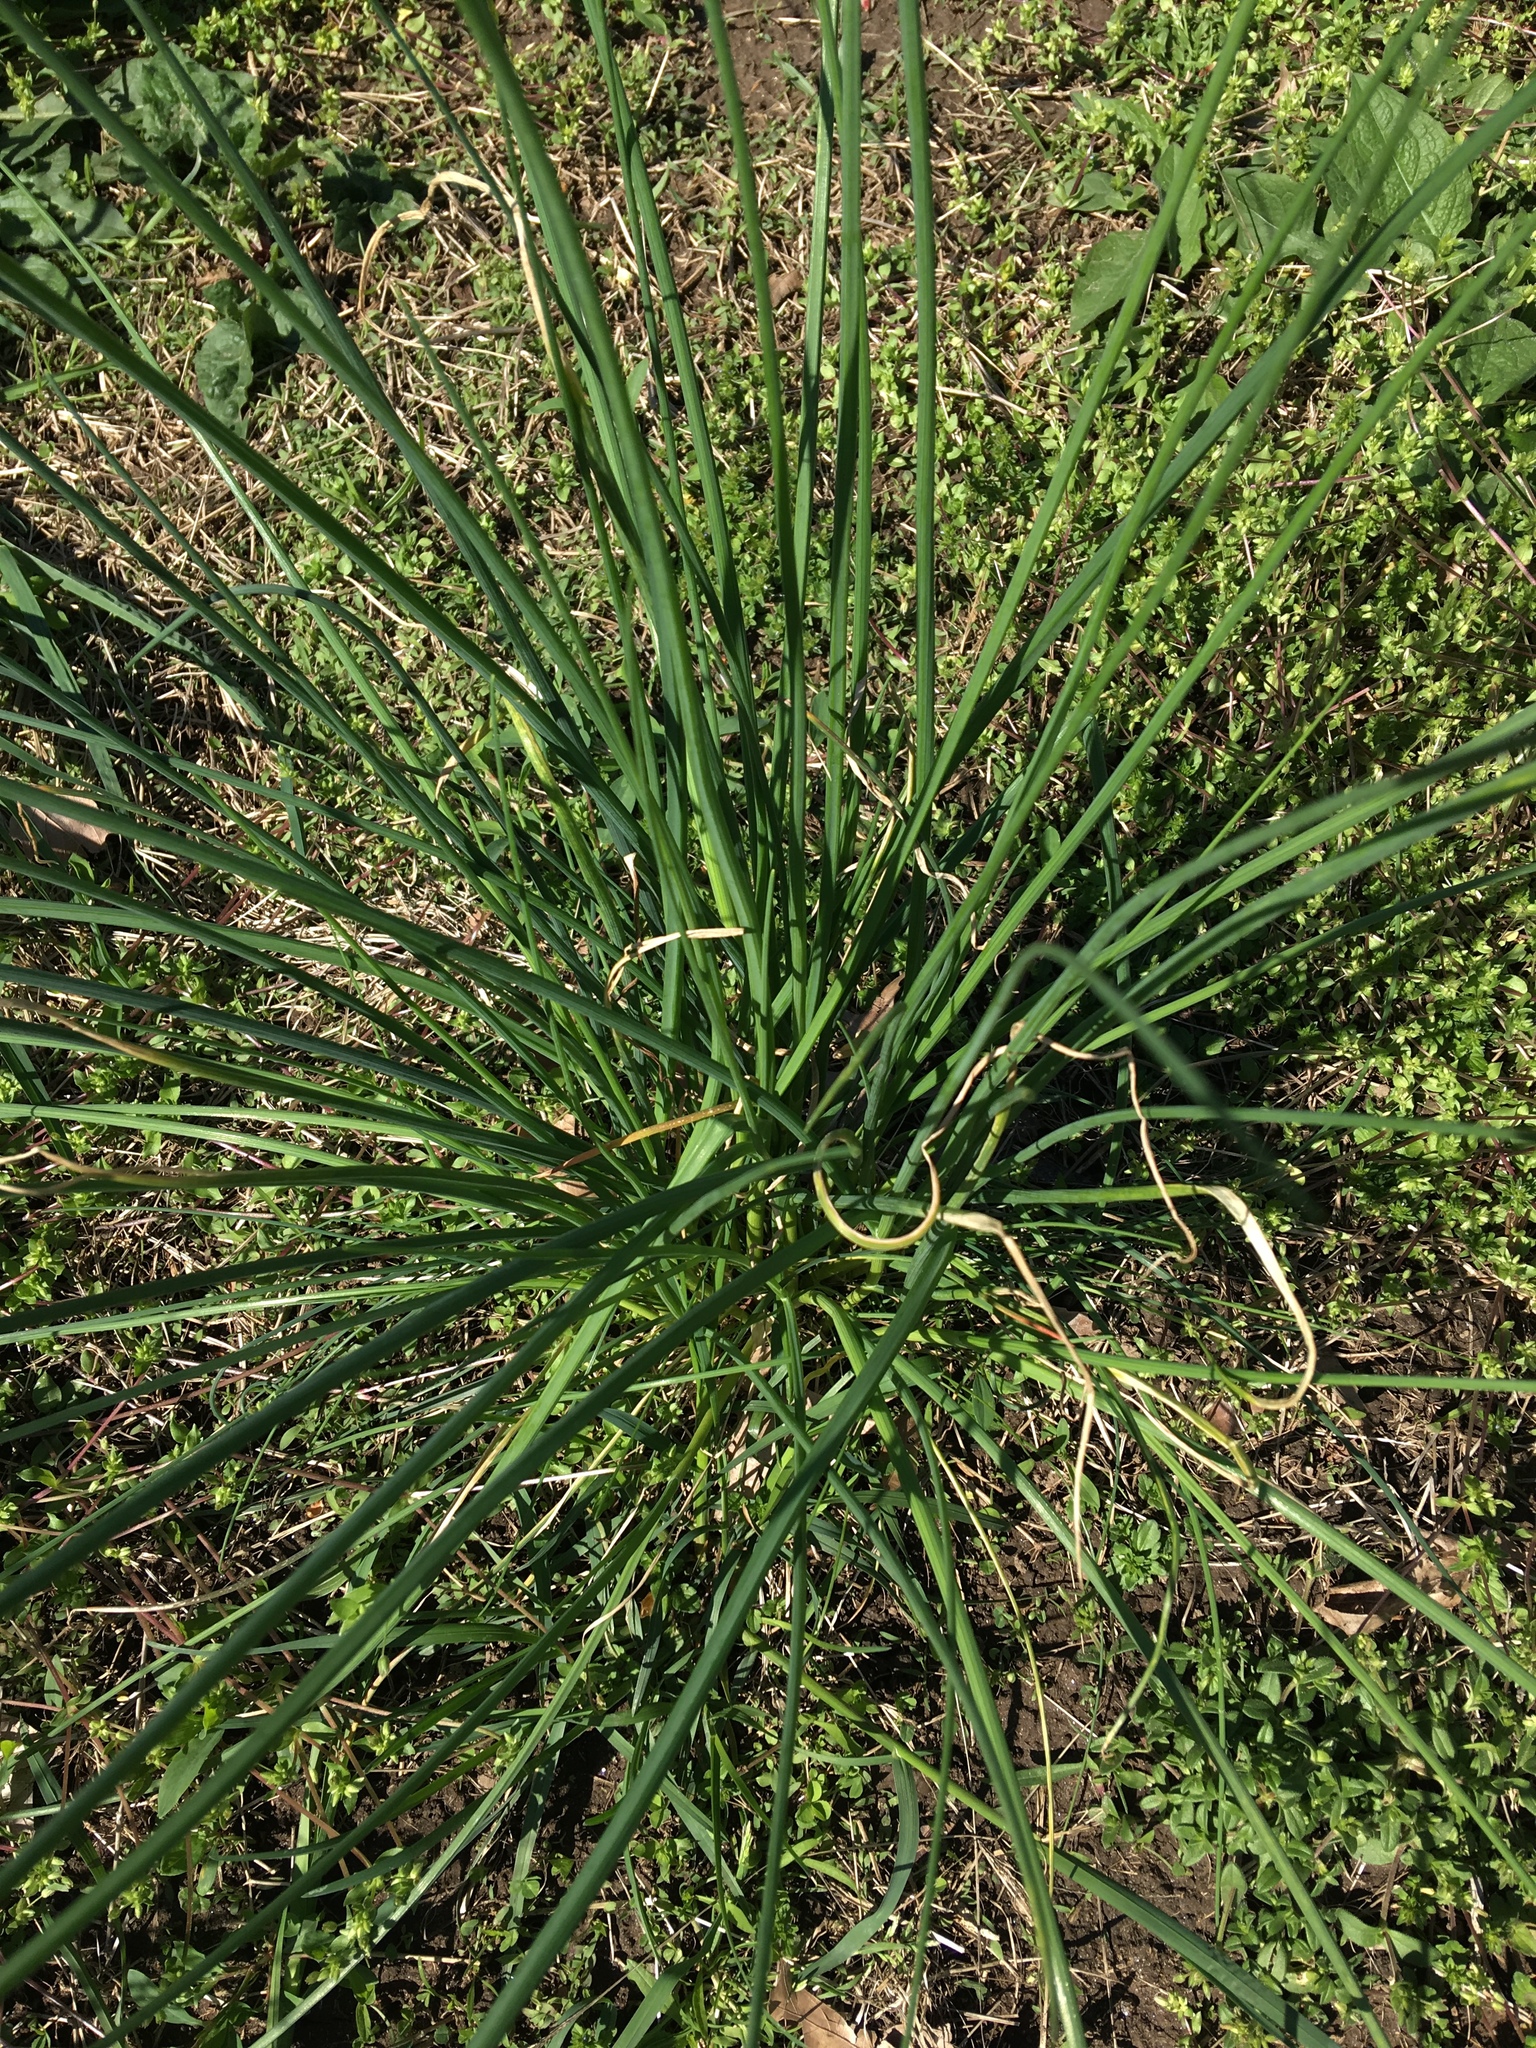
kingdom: Plantae
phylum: Tracheophyta
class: Liliopsida
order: Asparagales
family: Amaryllidaceae
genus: Allium
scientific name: Allium vineale
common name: Crow garlic
